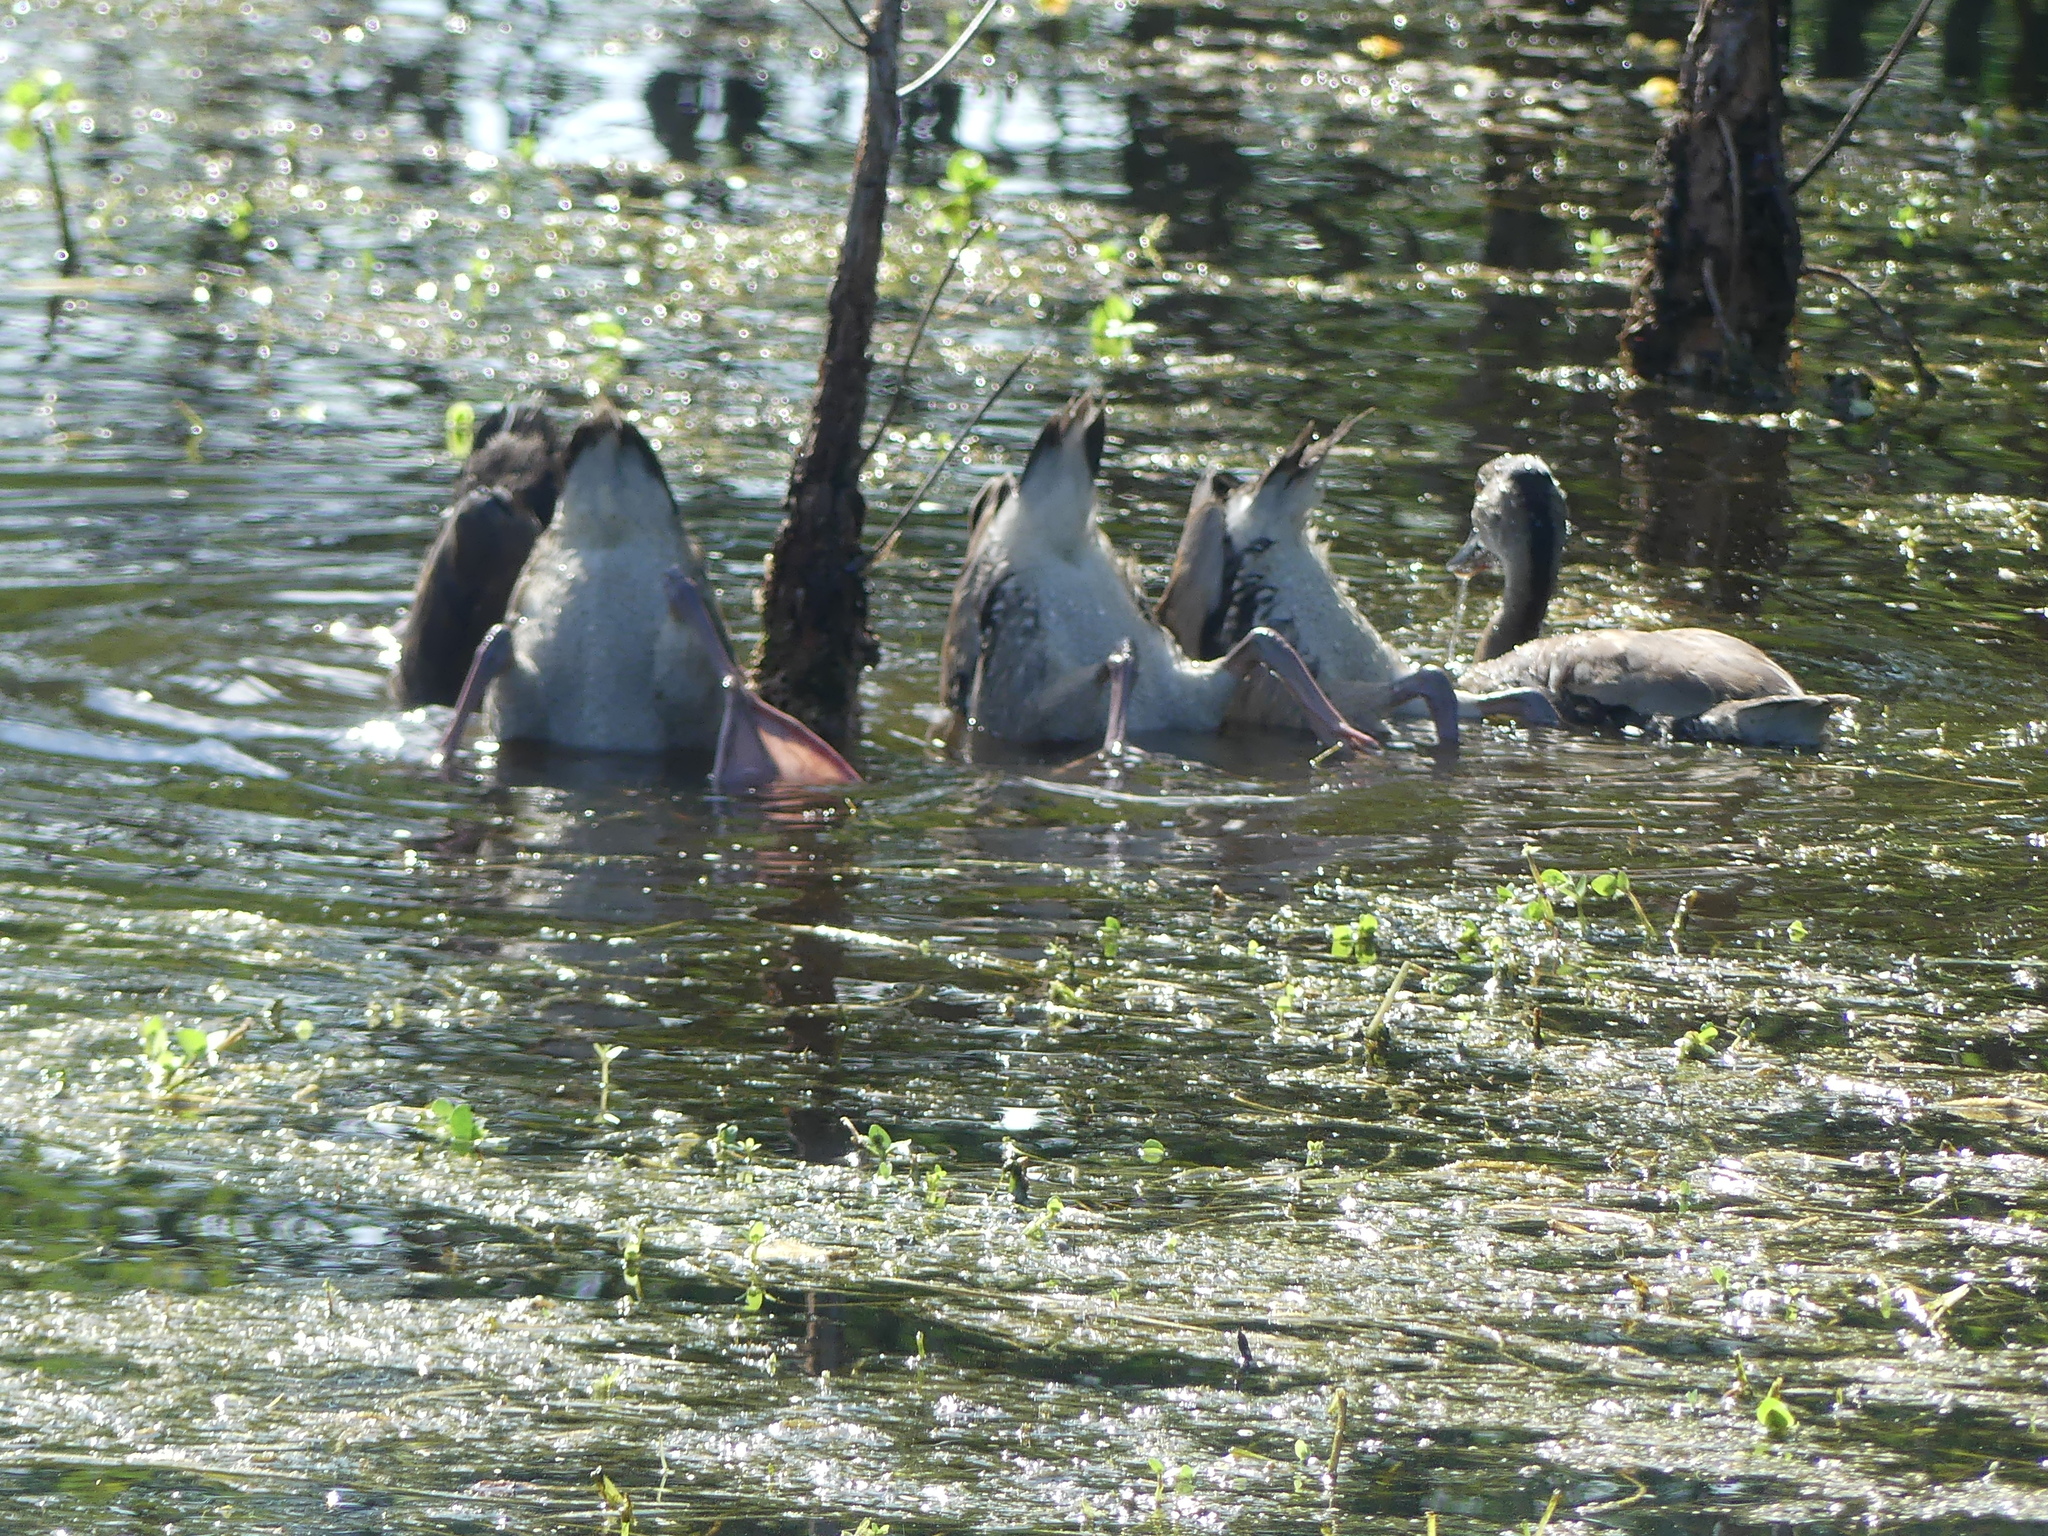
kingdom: Animalia
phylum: Chordata
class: Aves
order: Anseriformes
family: Anatidae
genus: Dendrocygna
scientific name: Dendrocygna autumnalis
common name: Black-bellied whistling duck
